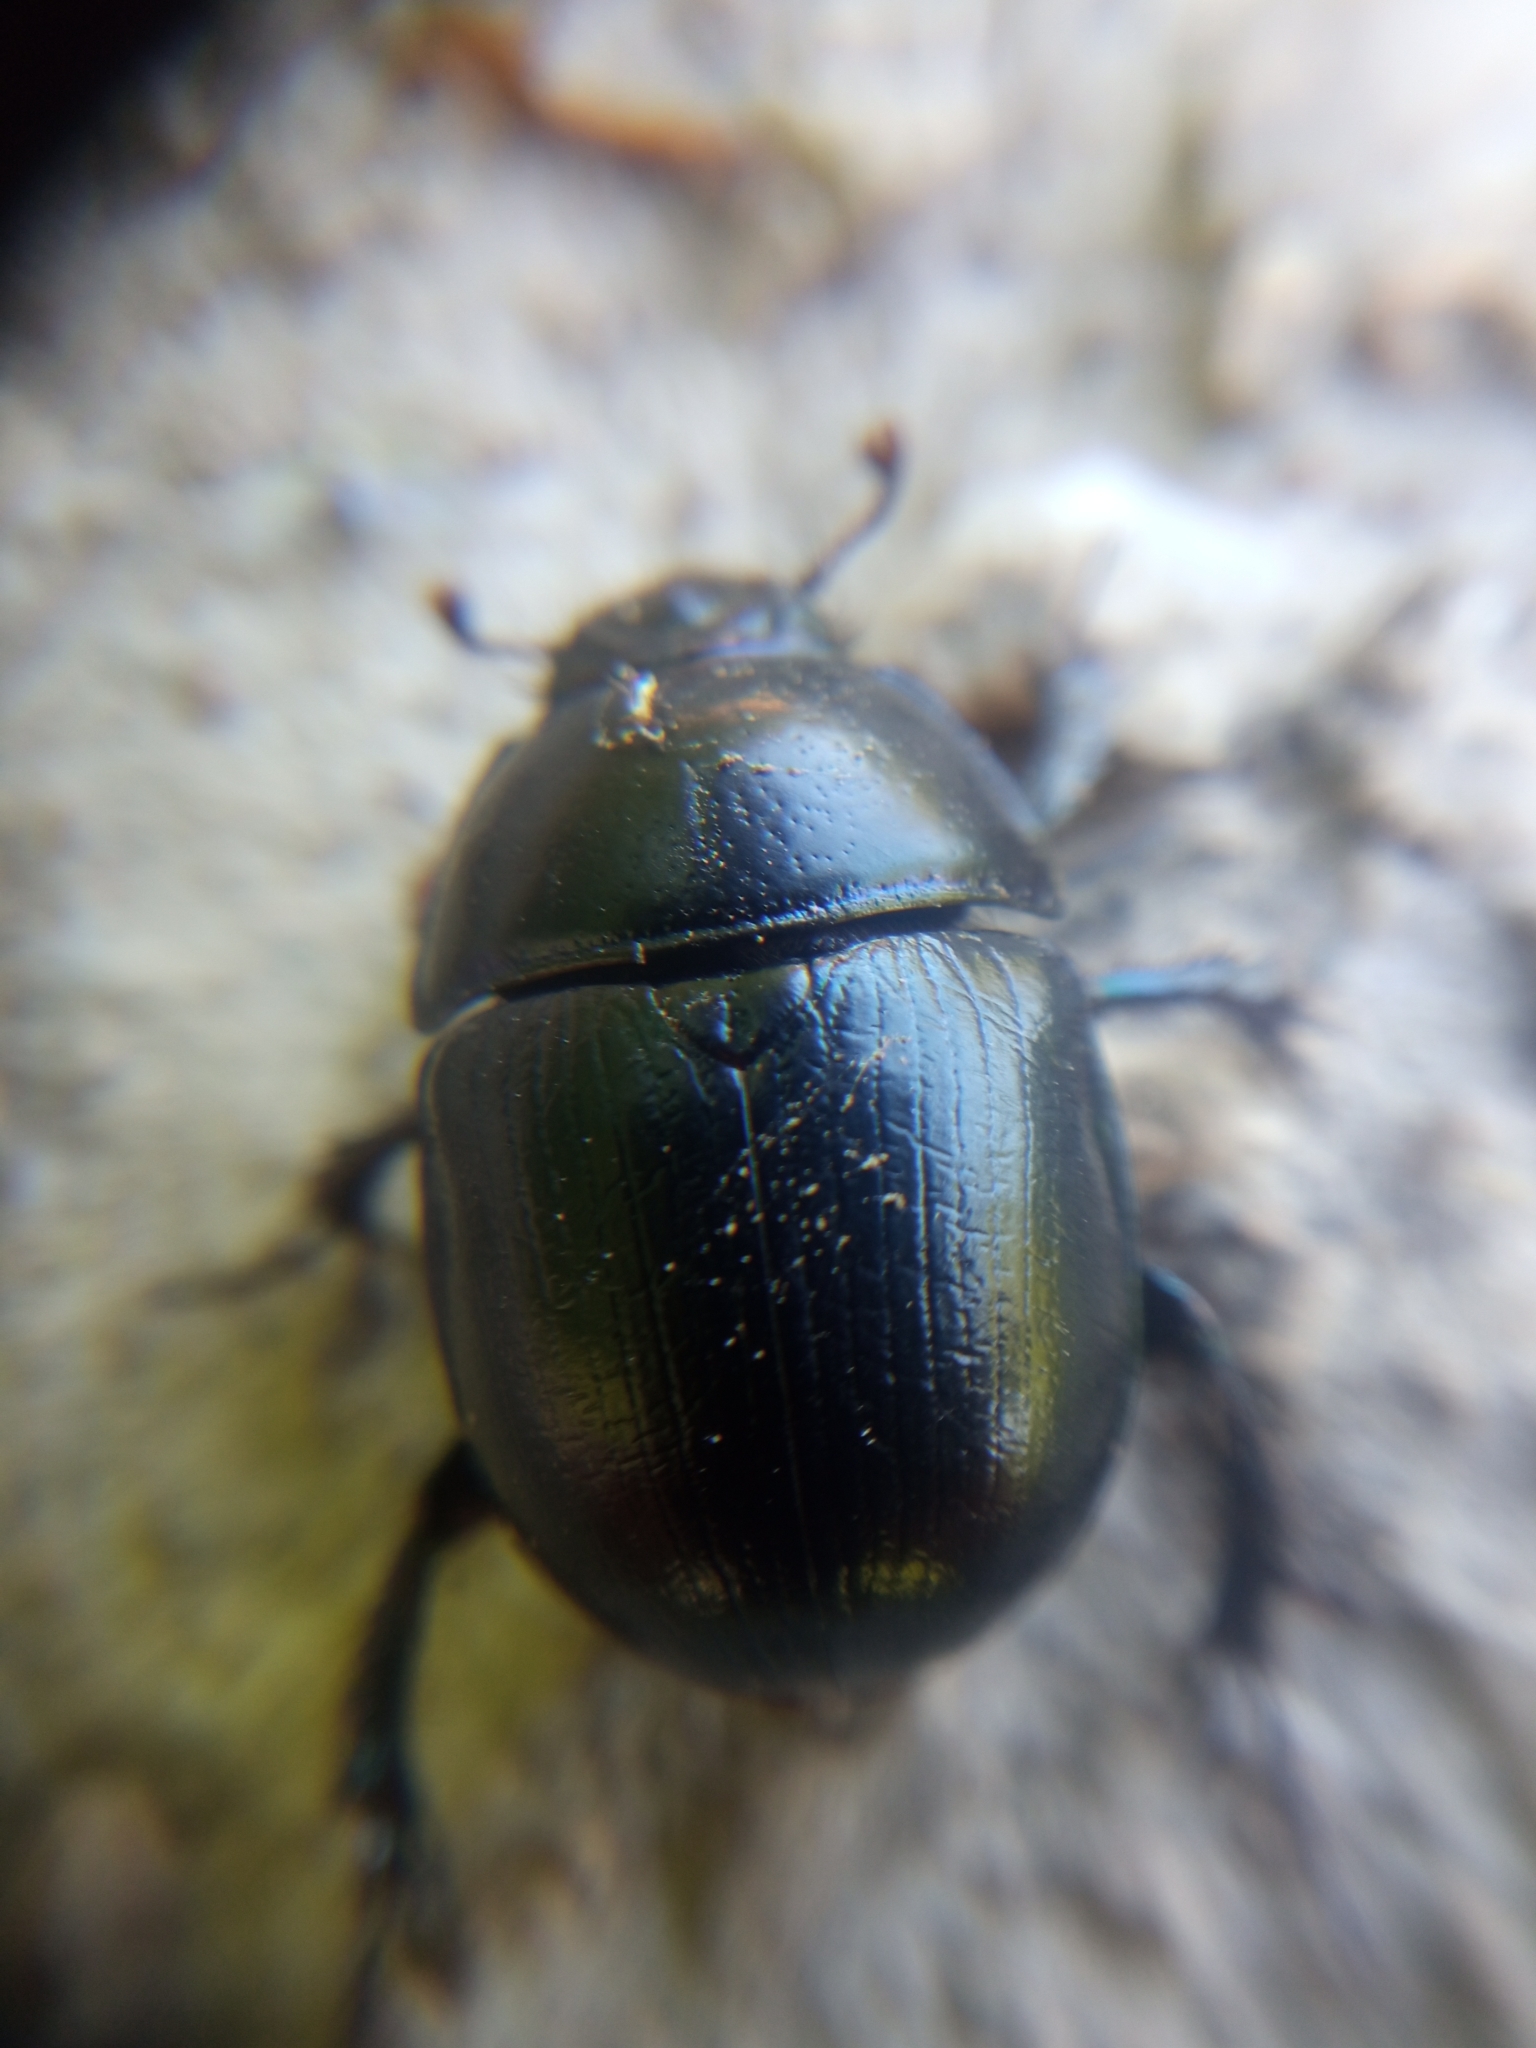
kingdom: Animalia
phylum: Arthropoda
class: Insecta
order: Coleoptera
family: Geotrupidae
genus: Anoplotrupes
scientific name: Anoplotrupes stercorosus
